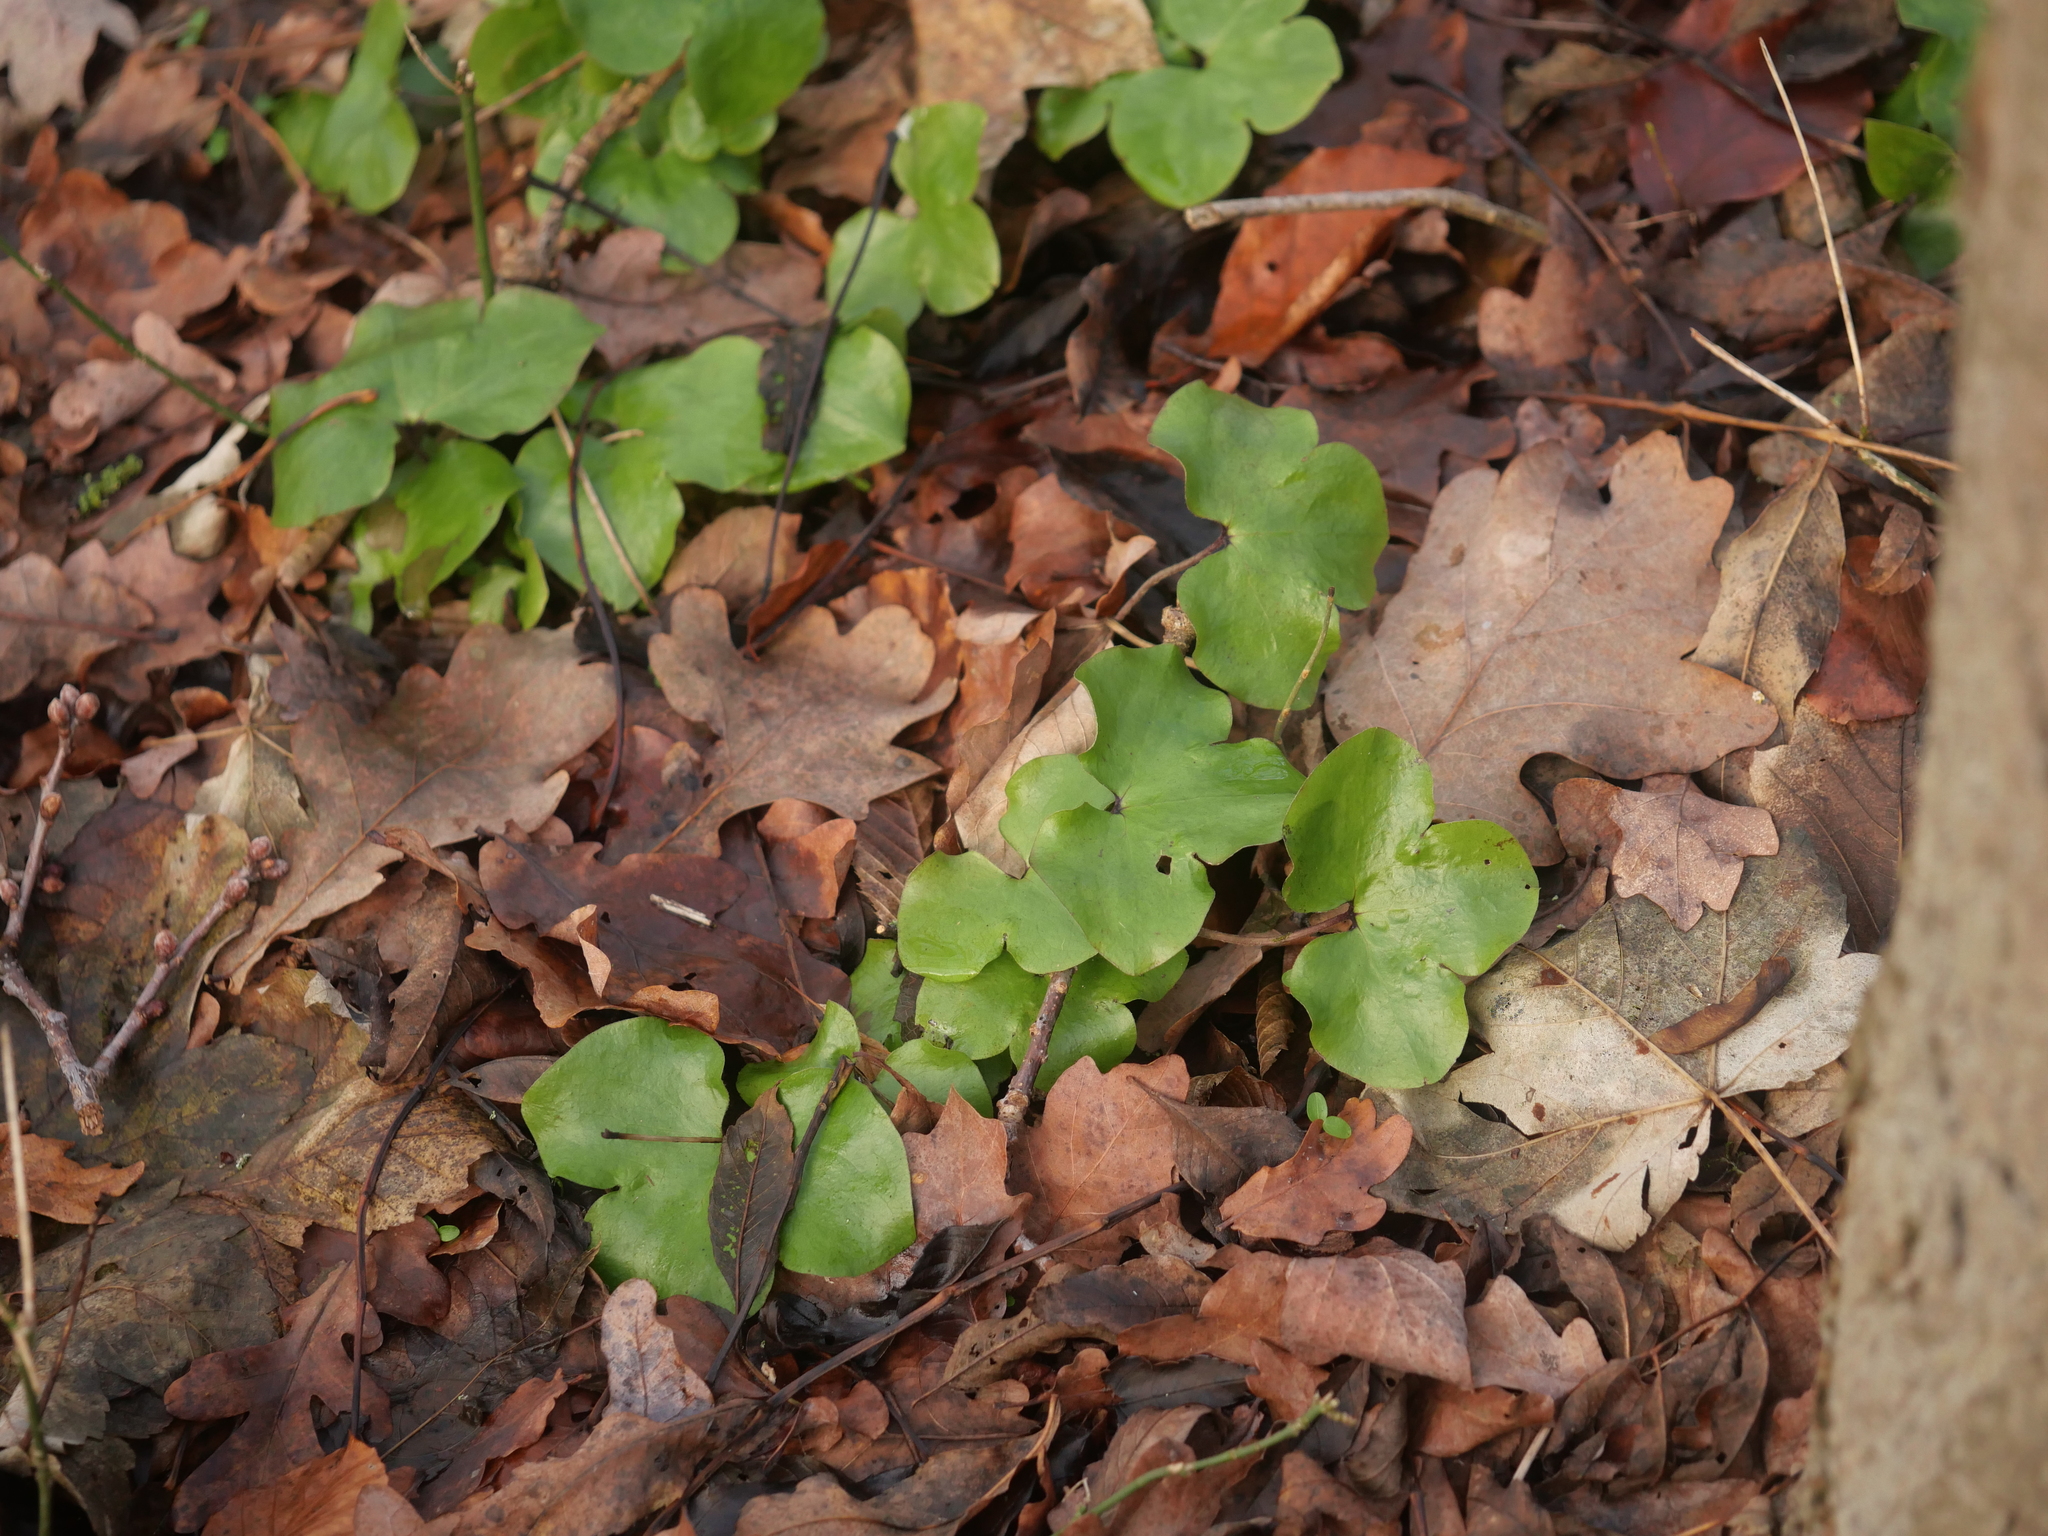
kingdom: Plantae
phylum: Tracheophyta
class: Magnoliopsida
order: Ranunculales
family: Ranunculaceae
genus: Hepatica
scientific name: Hepatica nobilis
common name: Liverleaf
